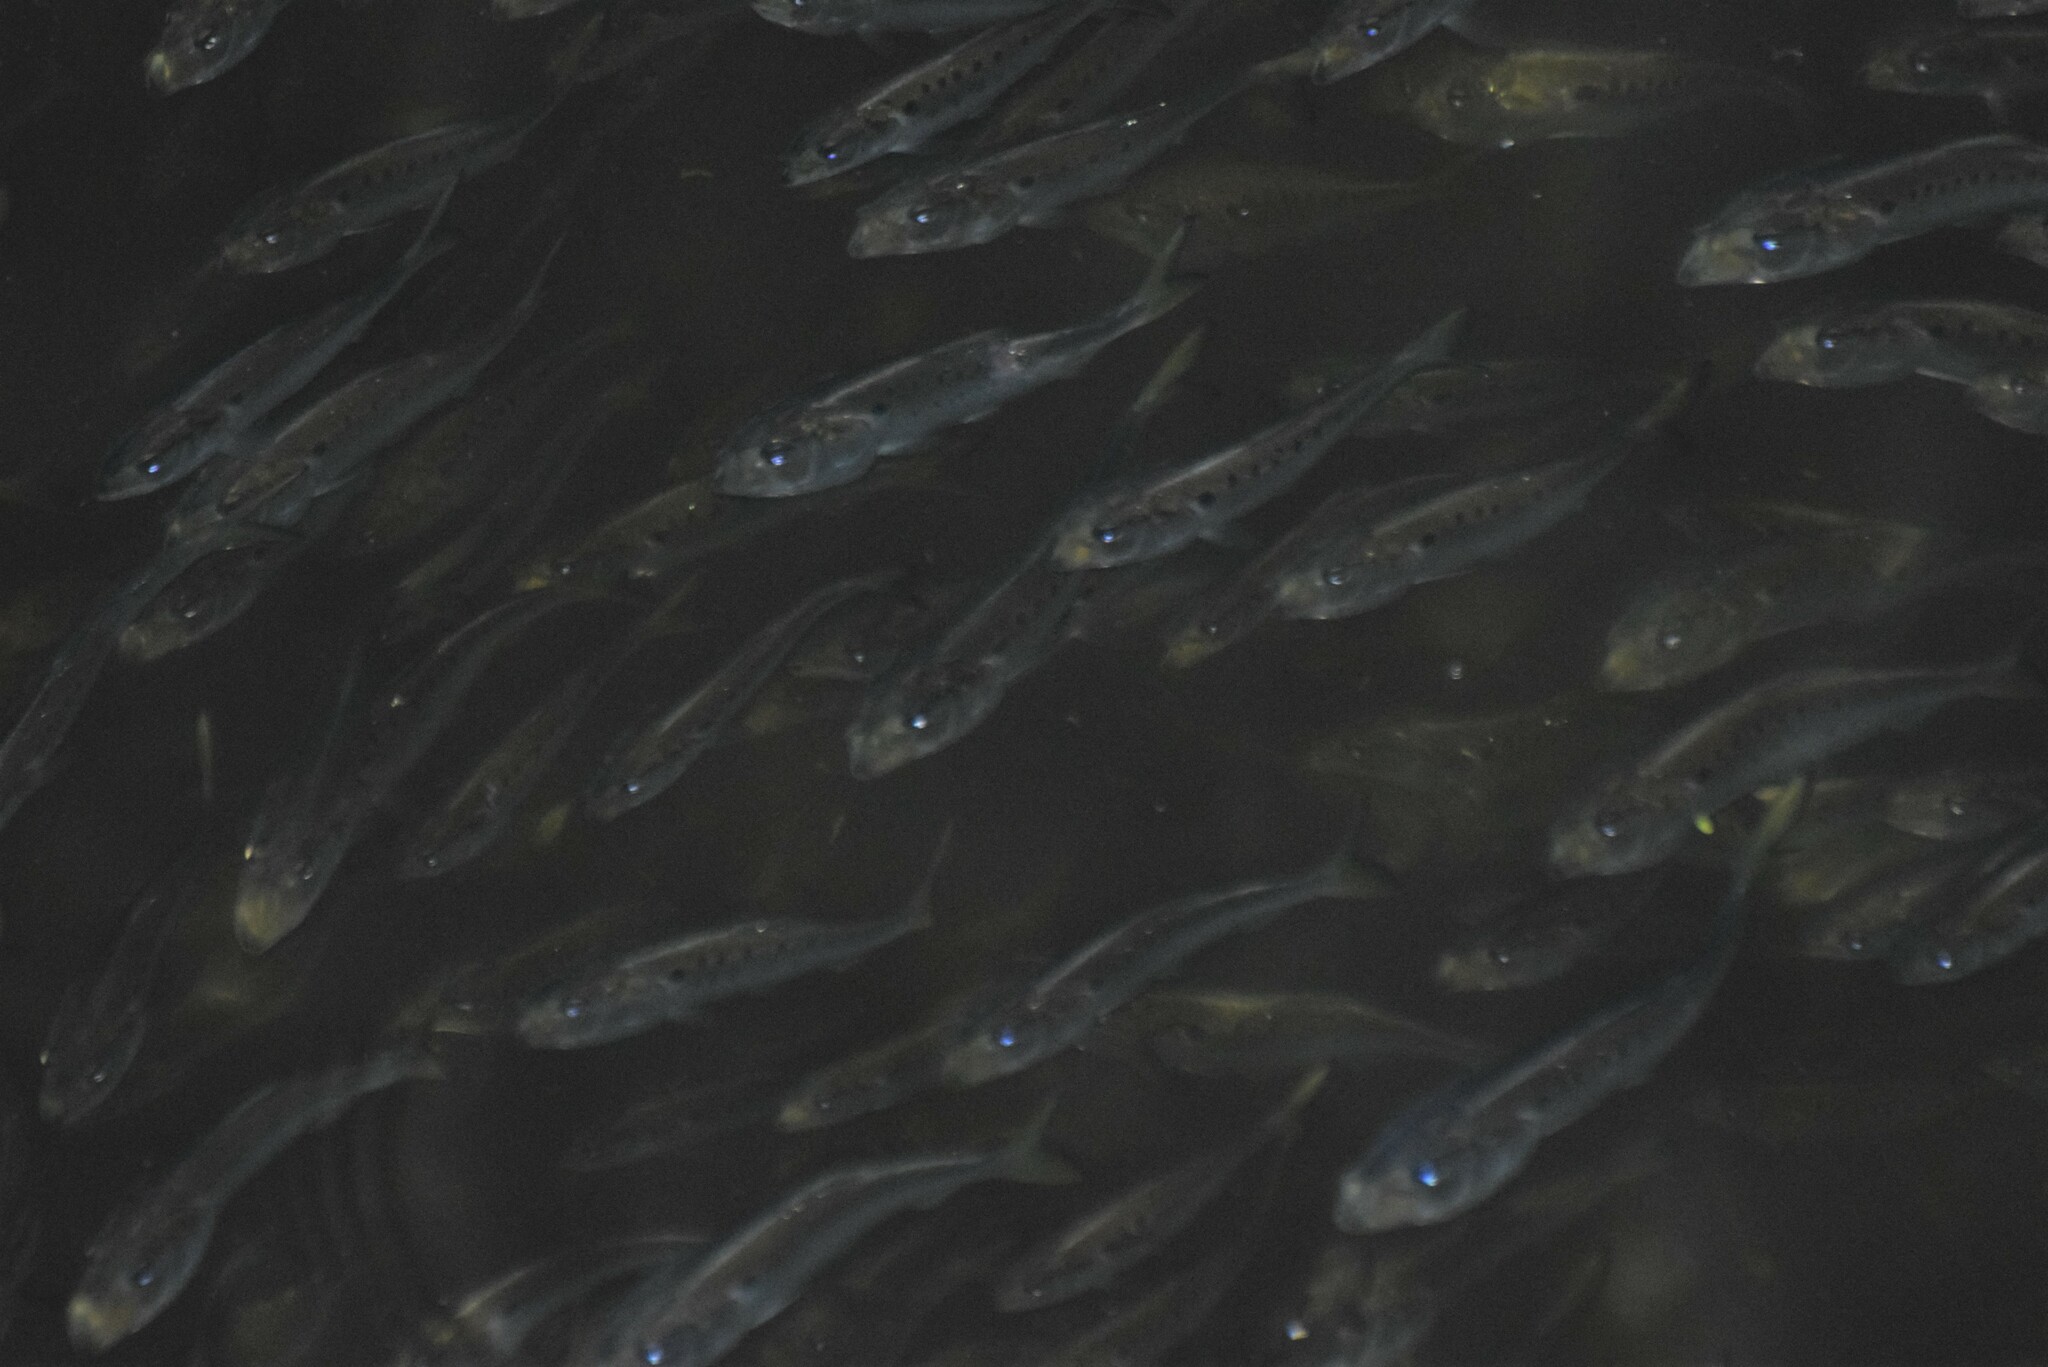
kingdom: Animalia
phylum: Chordata
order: Clupeiformes
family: Clupeidae
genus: Brevoortia
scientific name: Brevoortia tyrannus
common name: Atlantic menhaden
